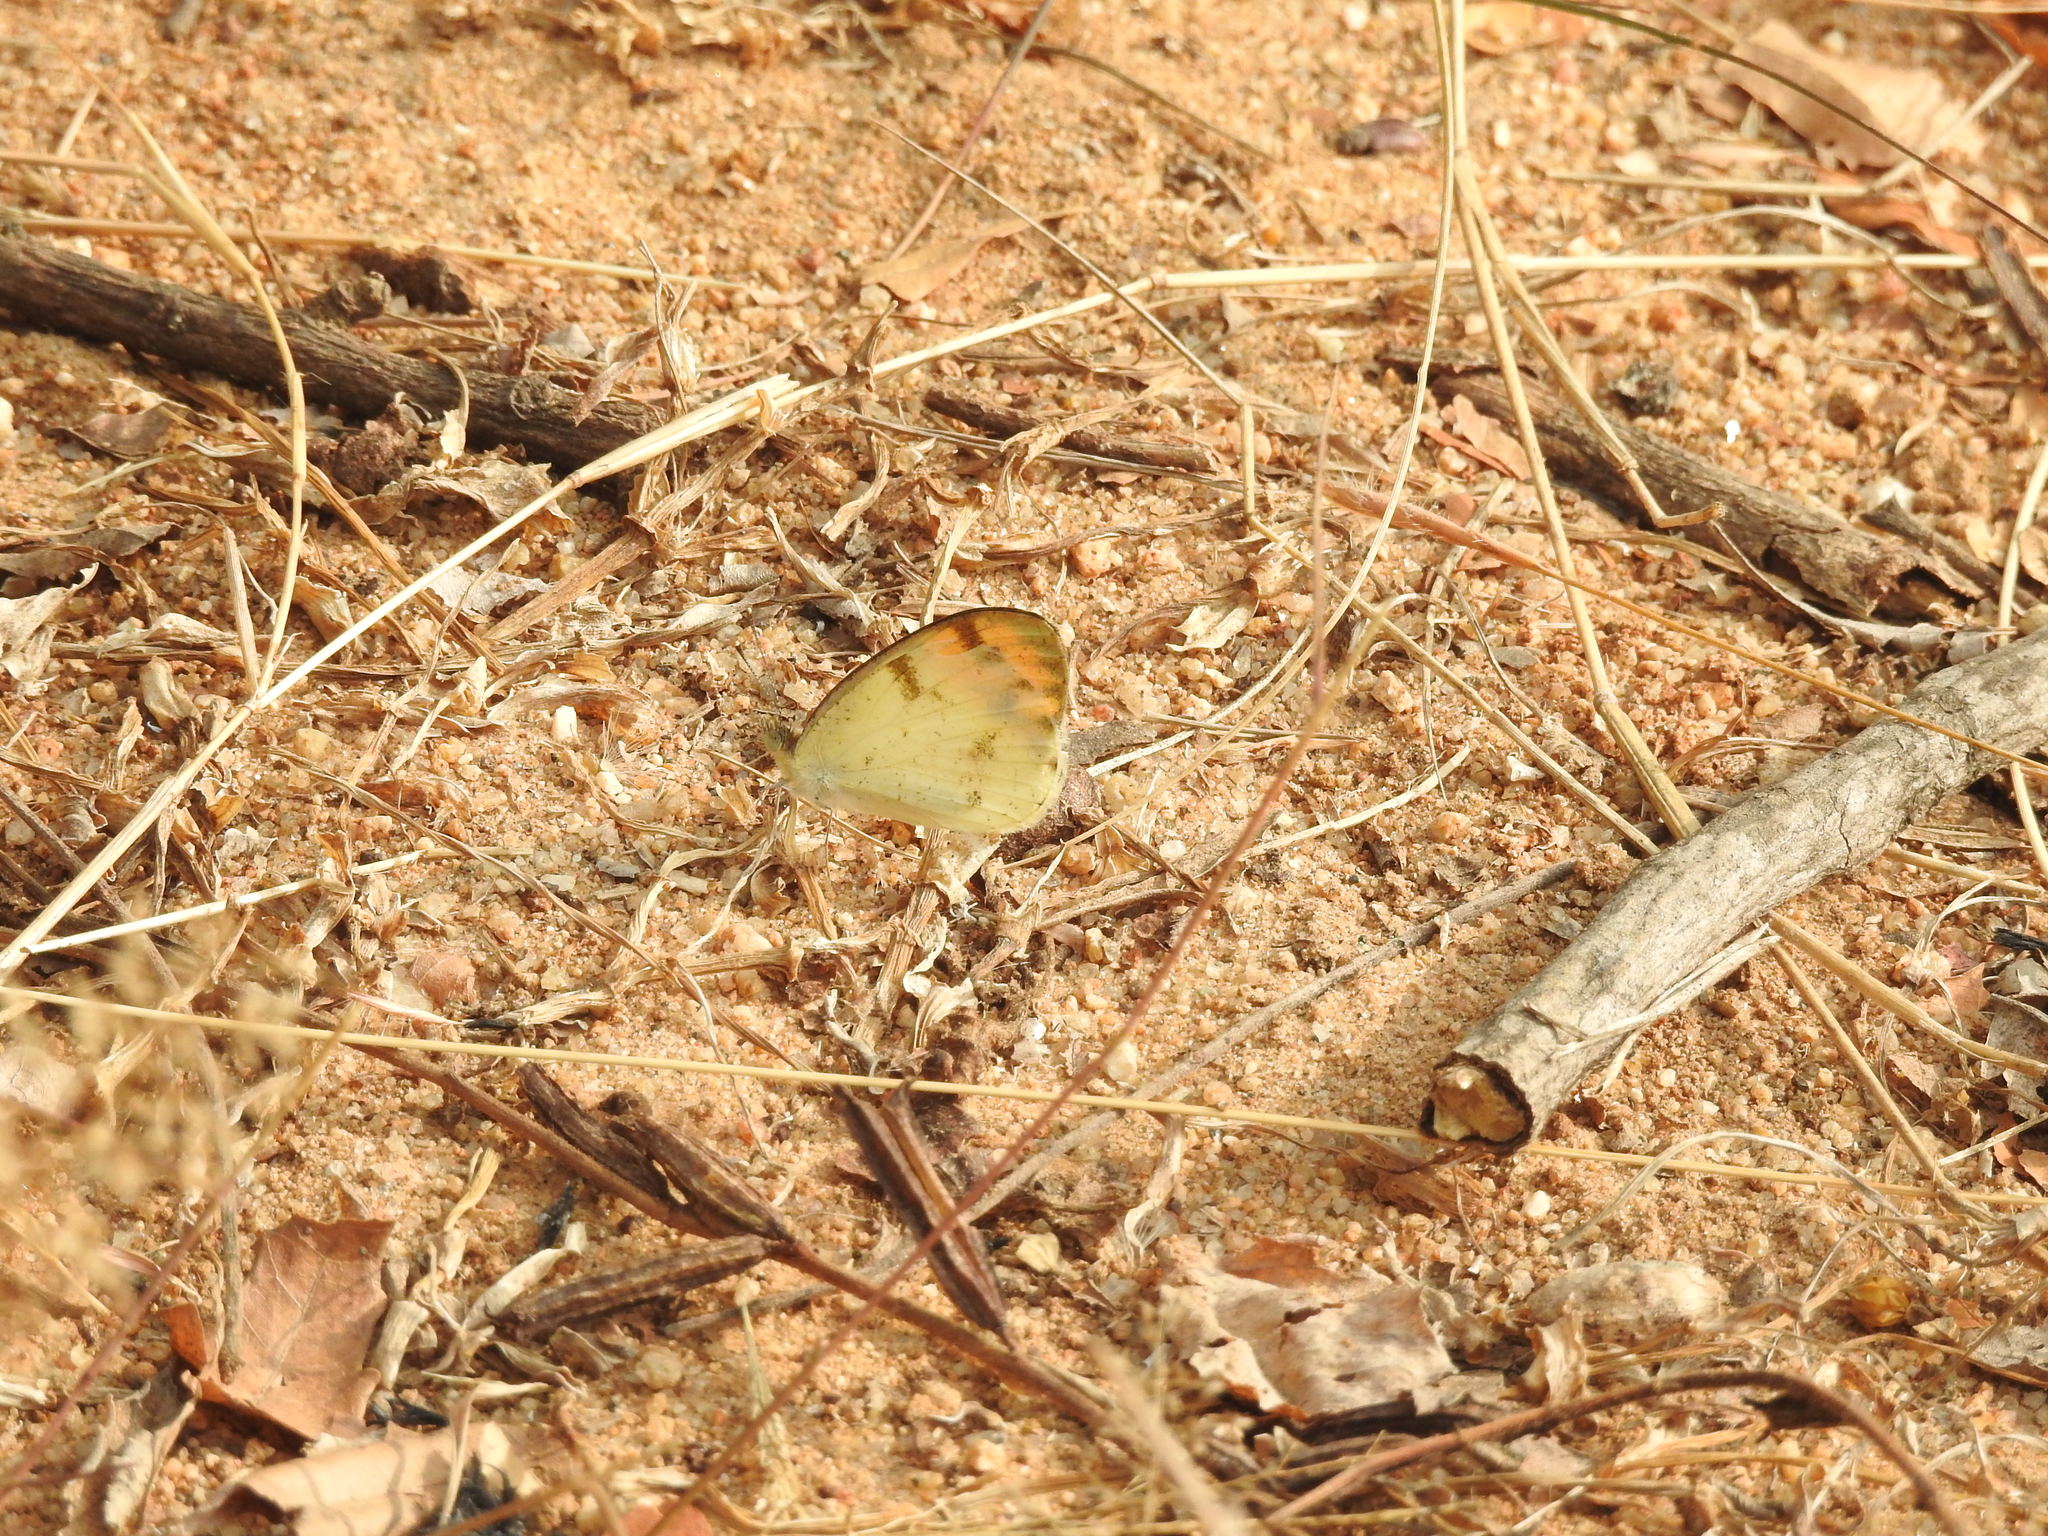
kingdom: Animalia
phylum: Arthropoda
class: Insecta
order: Lepidoptera
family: Pieridae
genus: Colotis
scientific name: Colotis aurora
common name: Plain orange-tip
